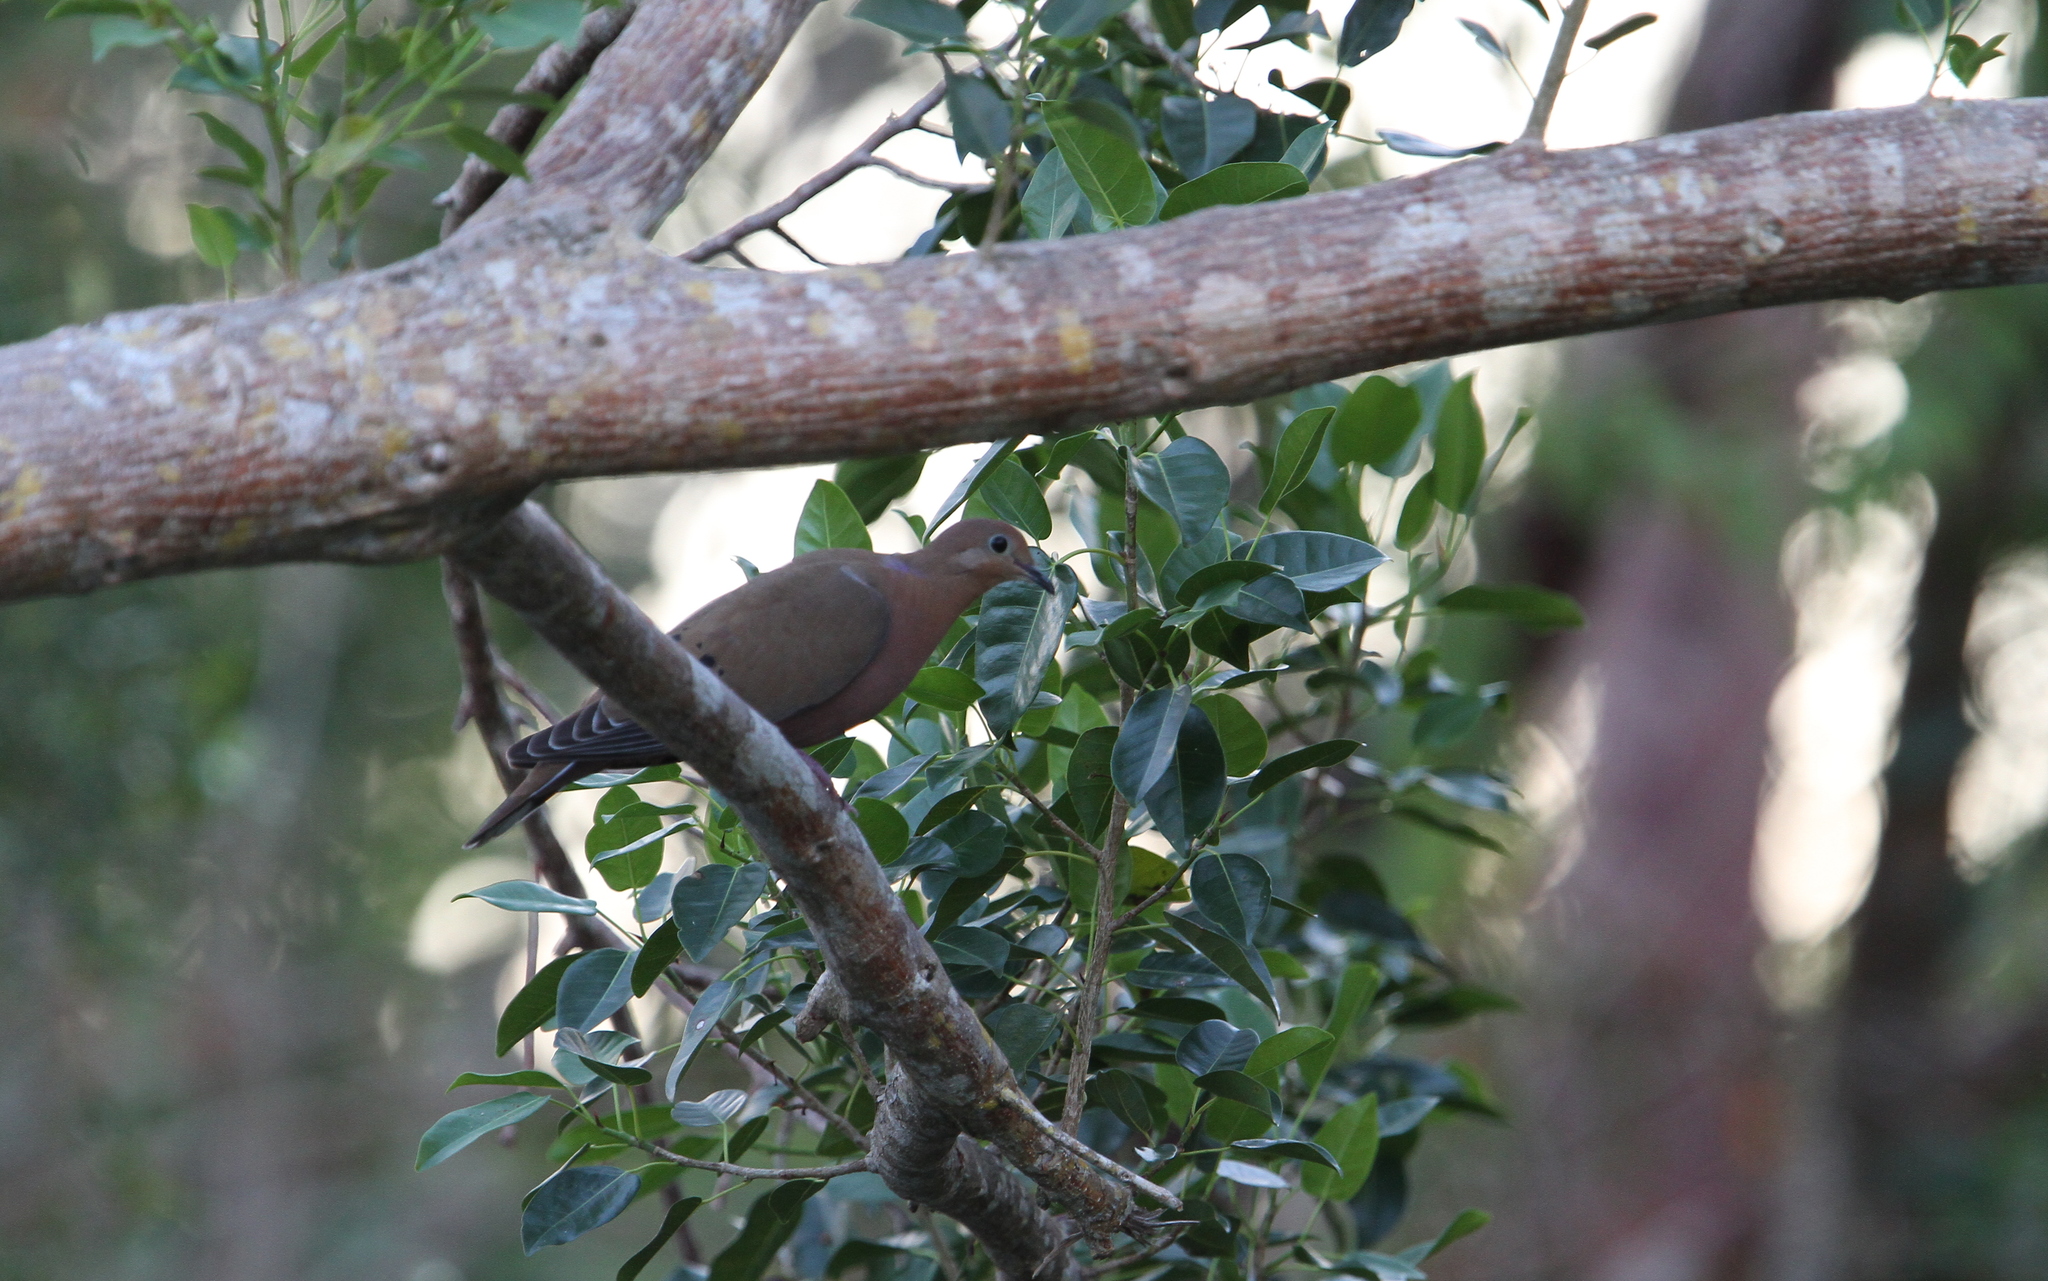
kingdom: Animalia
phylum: Chordata
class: Aves
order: Columbiformes
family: Columbidae
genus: Zenaida
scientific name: Zenaida aurita
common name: Zenaida dove
